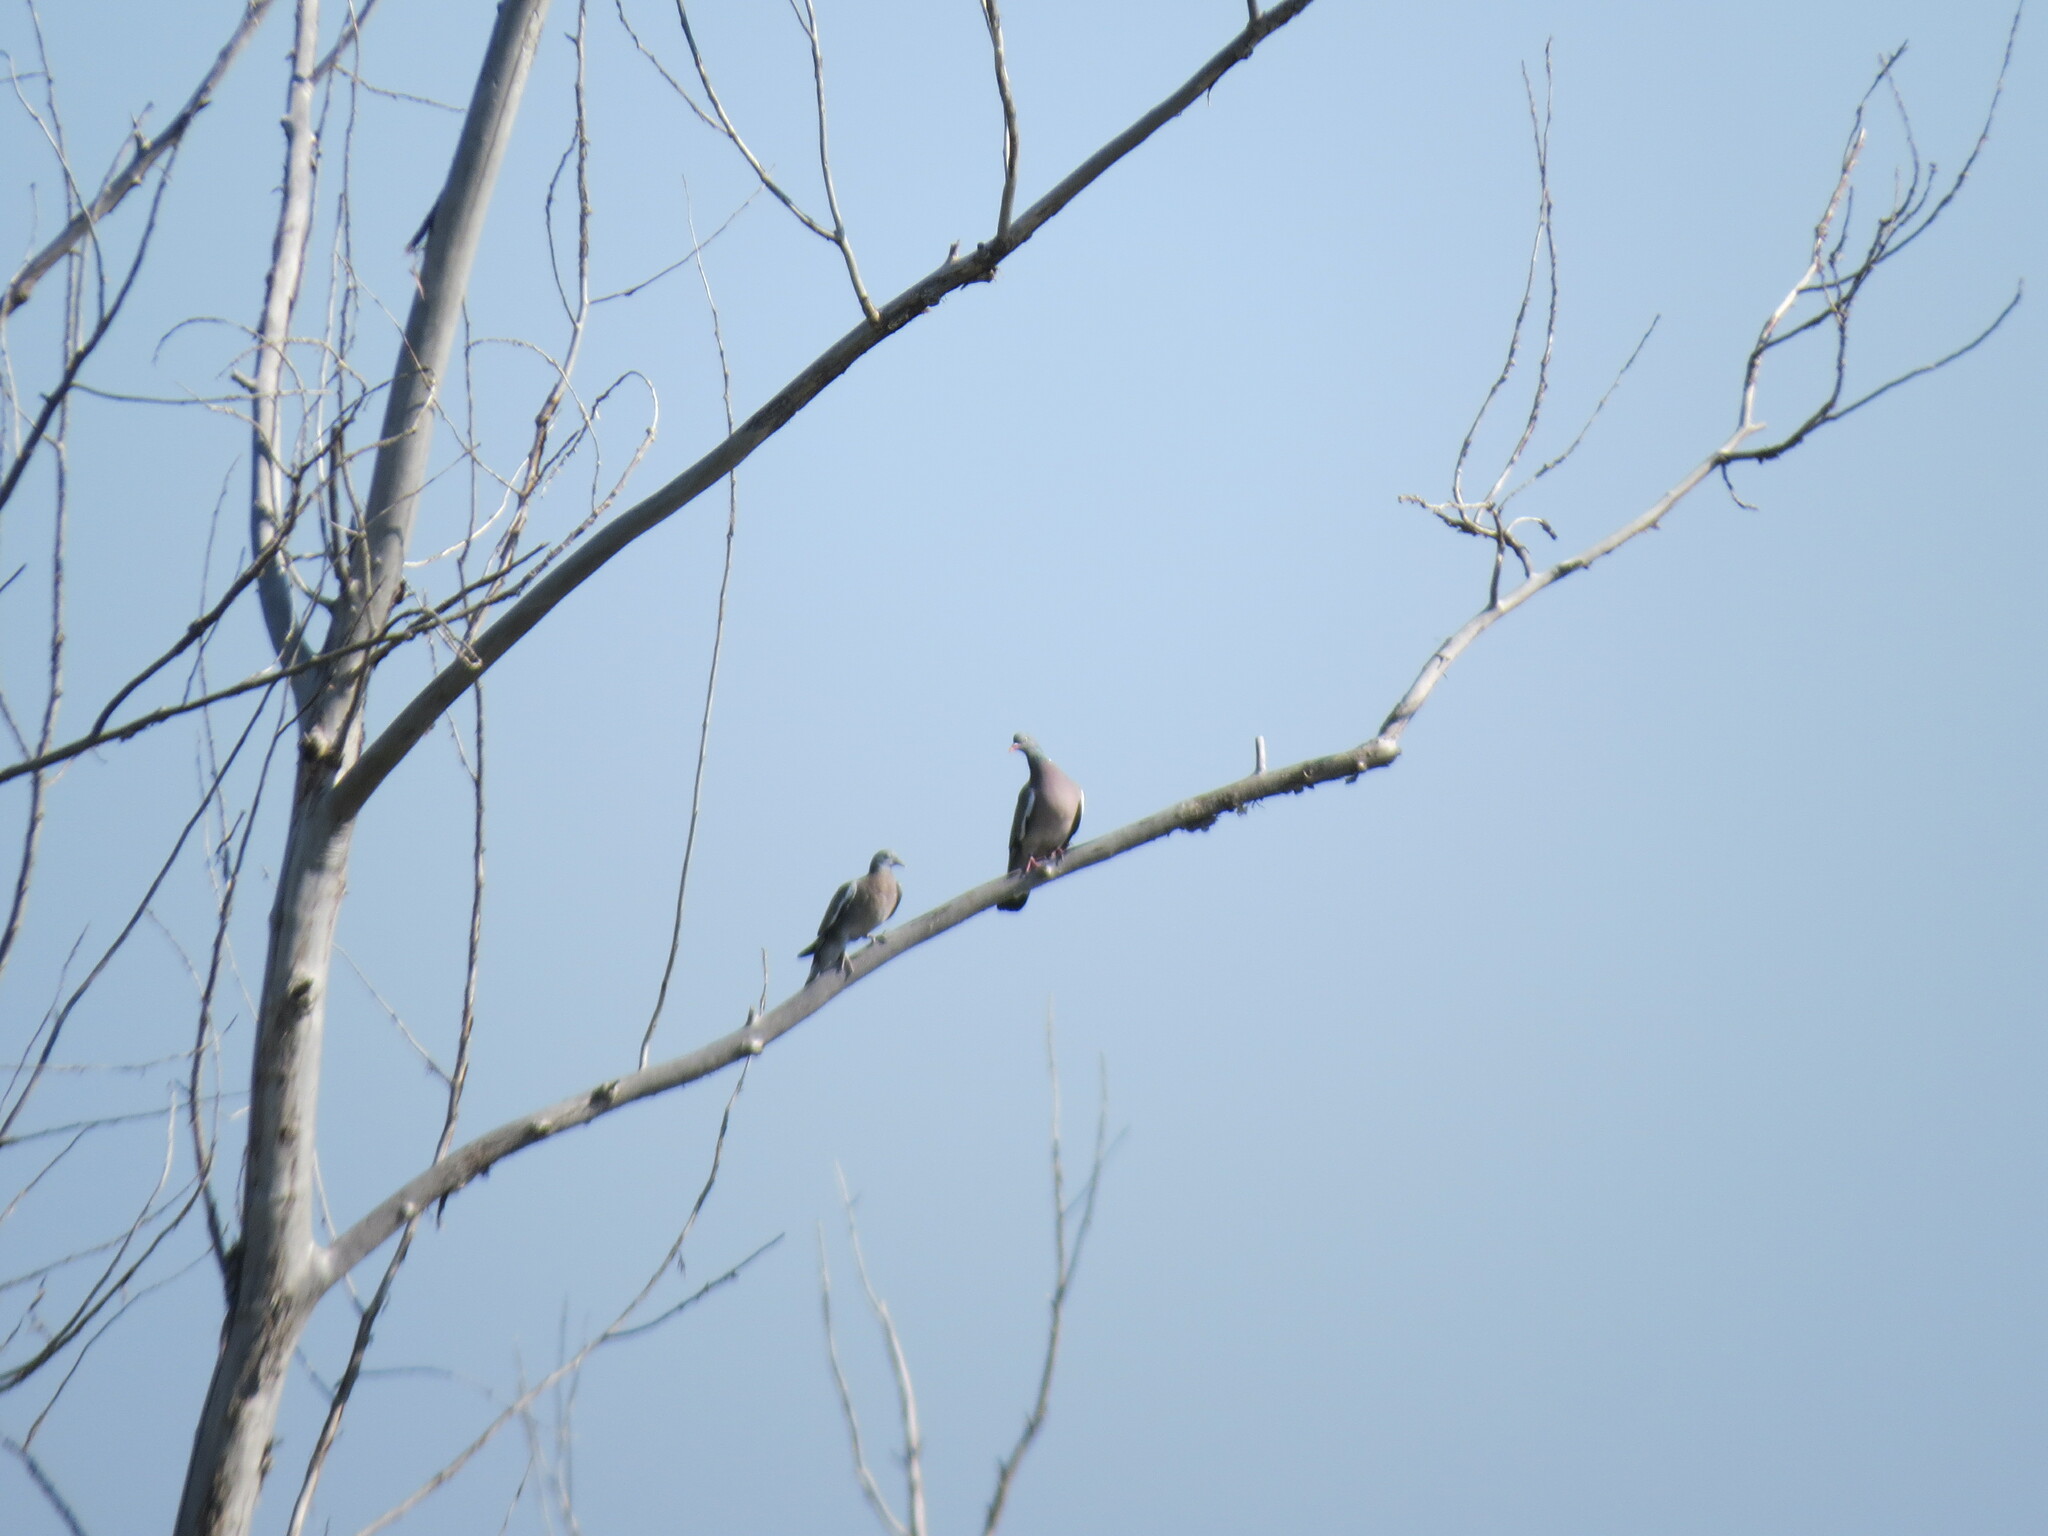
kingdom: Animalia
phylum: Chordata
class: Aves
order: Columbiformes
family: Columbidae
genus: Columba
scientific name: Columba palumbus
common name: Common wood pigeon
